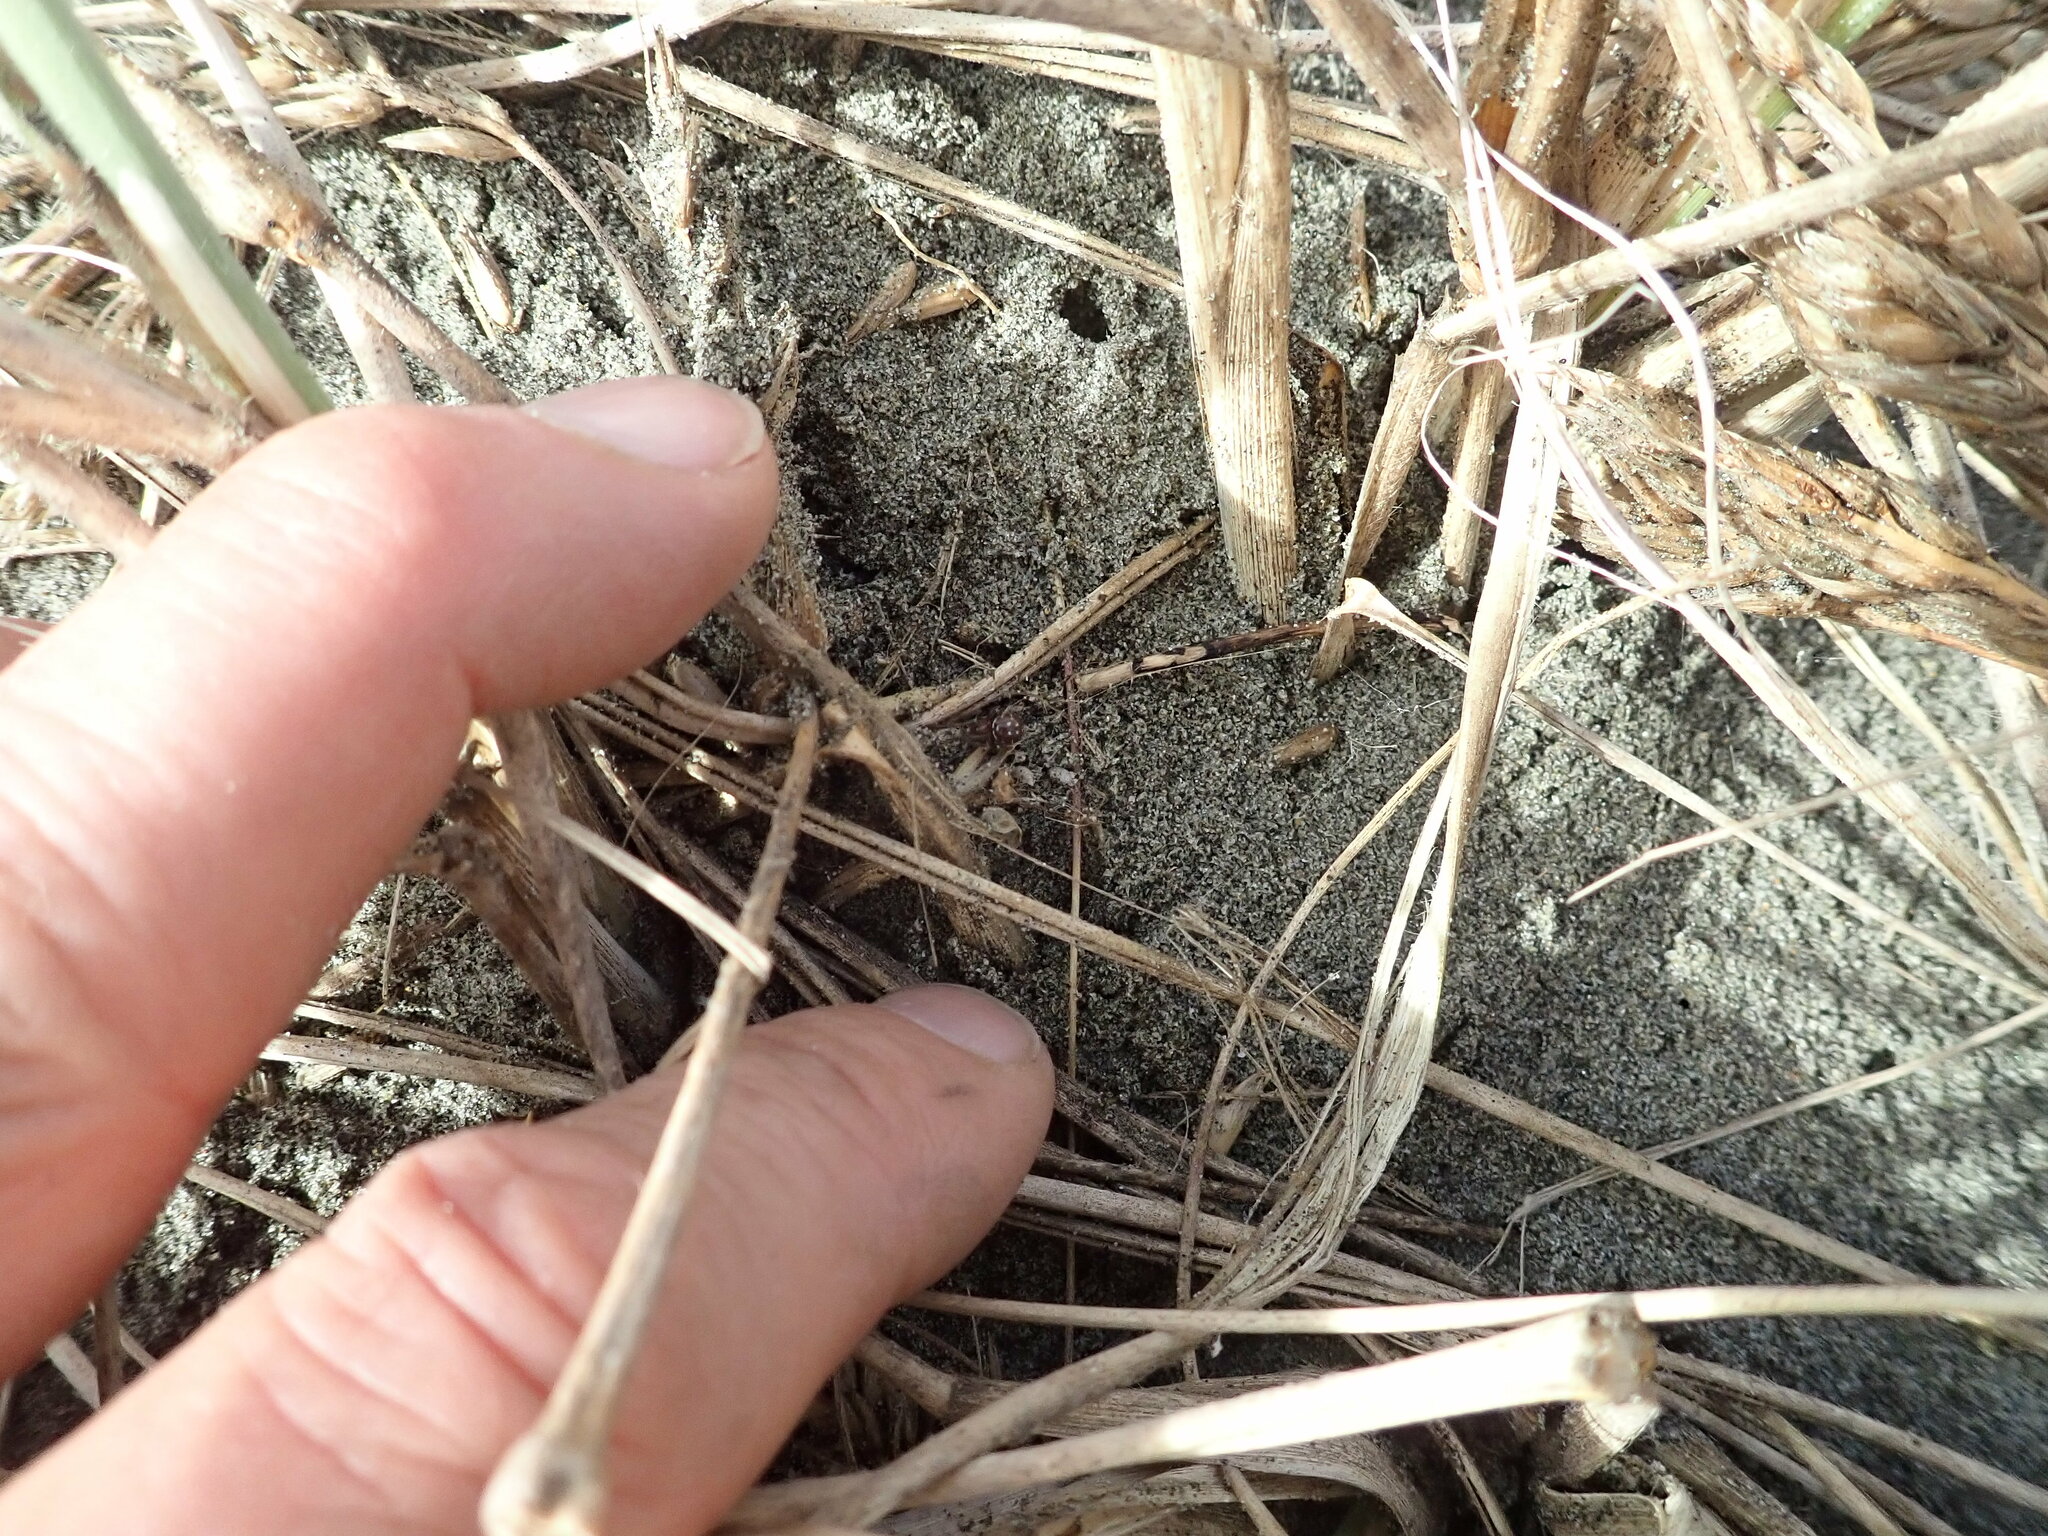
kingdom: Animalia
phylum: Arthropoda
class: Arachnida
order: Araneae
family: Theridiidae
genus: Steatoda
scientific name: Steatoda capensis
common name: Cobweb weaver
